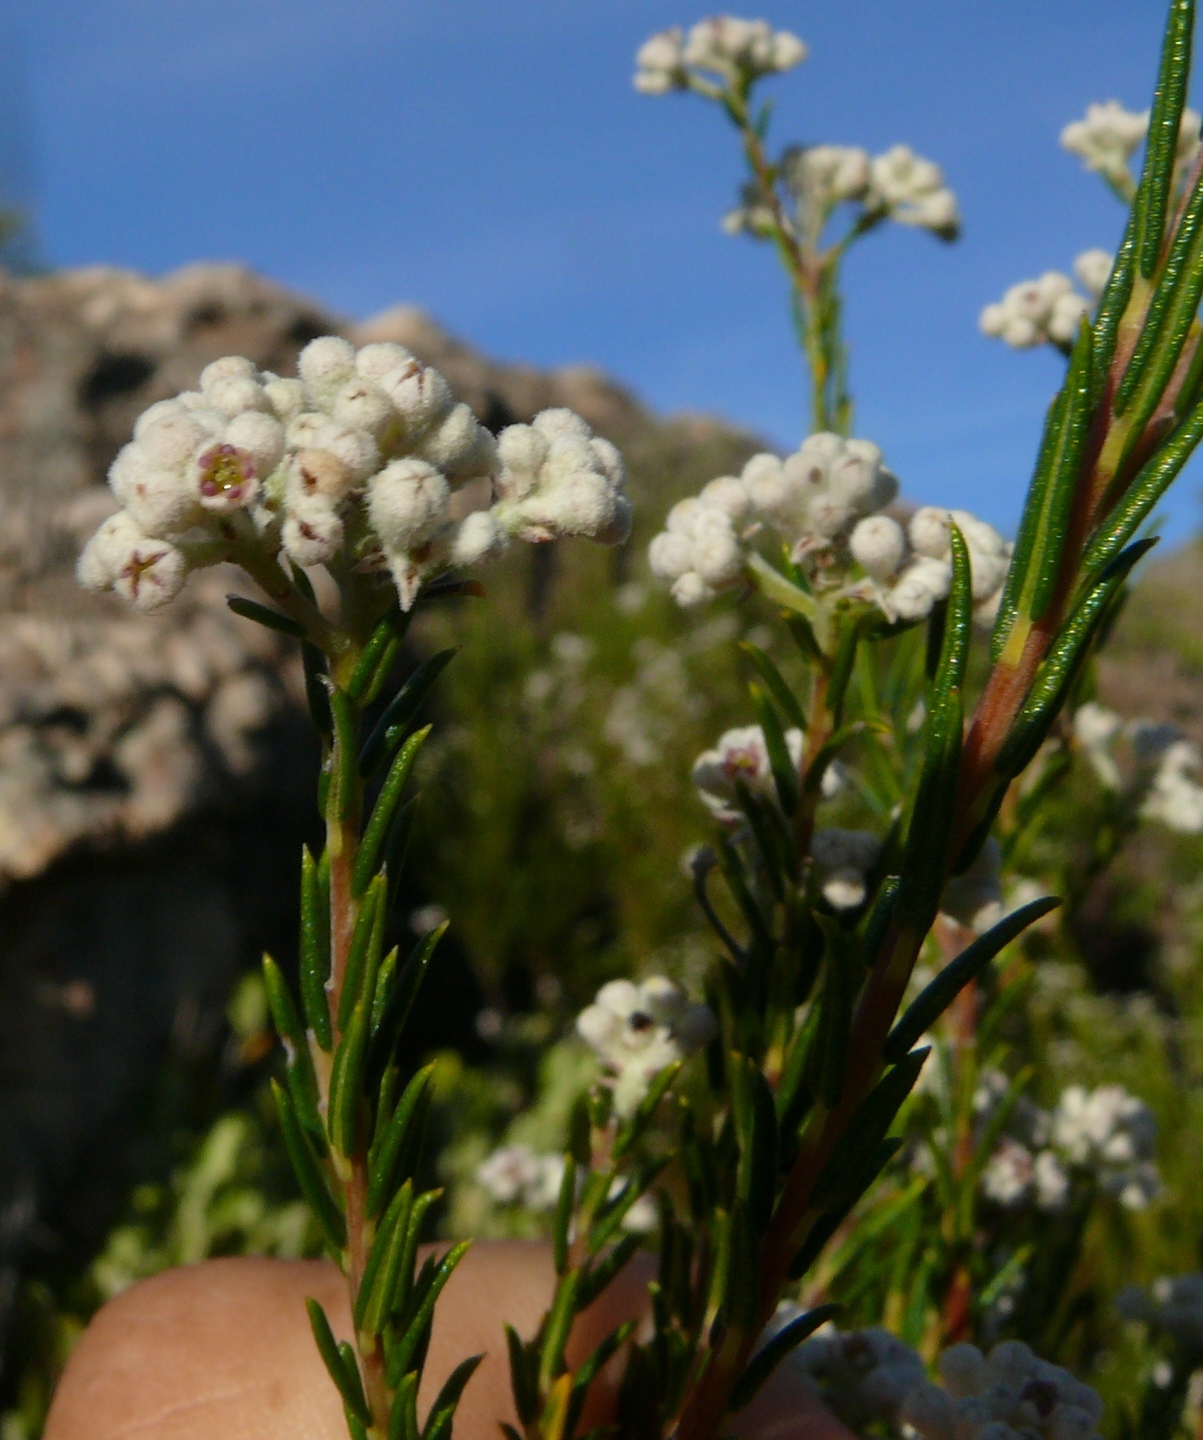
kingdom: Plantae
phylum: Tracheophyta
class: Magnoliopsida
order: Rosales
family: Rhamnaceae
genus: Phylica
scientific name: Phylica cryptandroides
